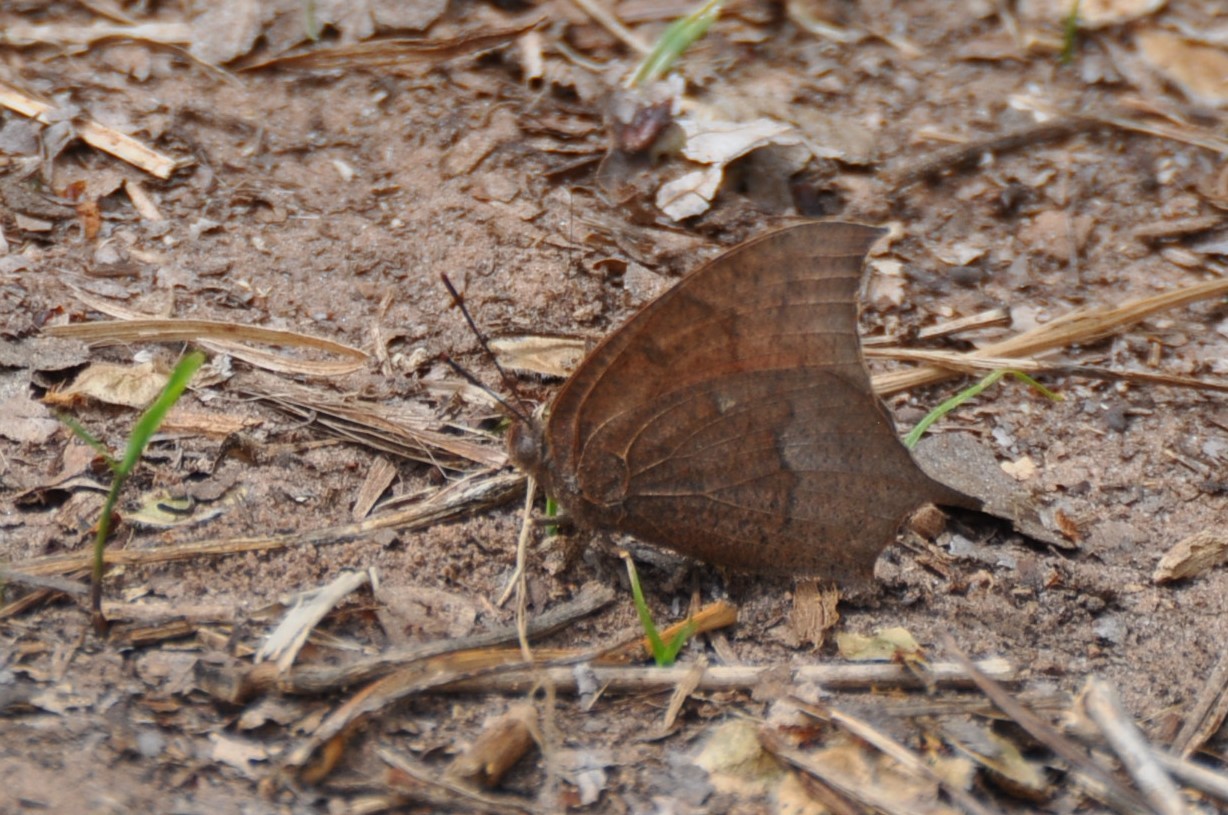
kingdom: Animalia
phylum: Arthropoda
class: Insecta
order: Lepidoptera
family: Nymphalidae
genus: Anaea
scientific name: Anaea andria
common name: Goatweed leafwing
